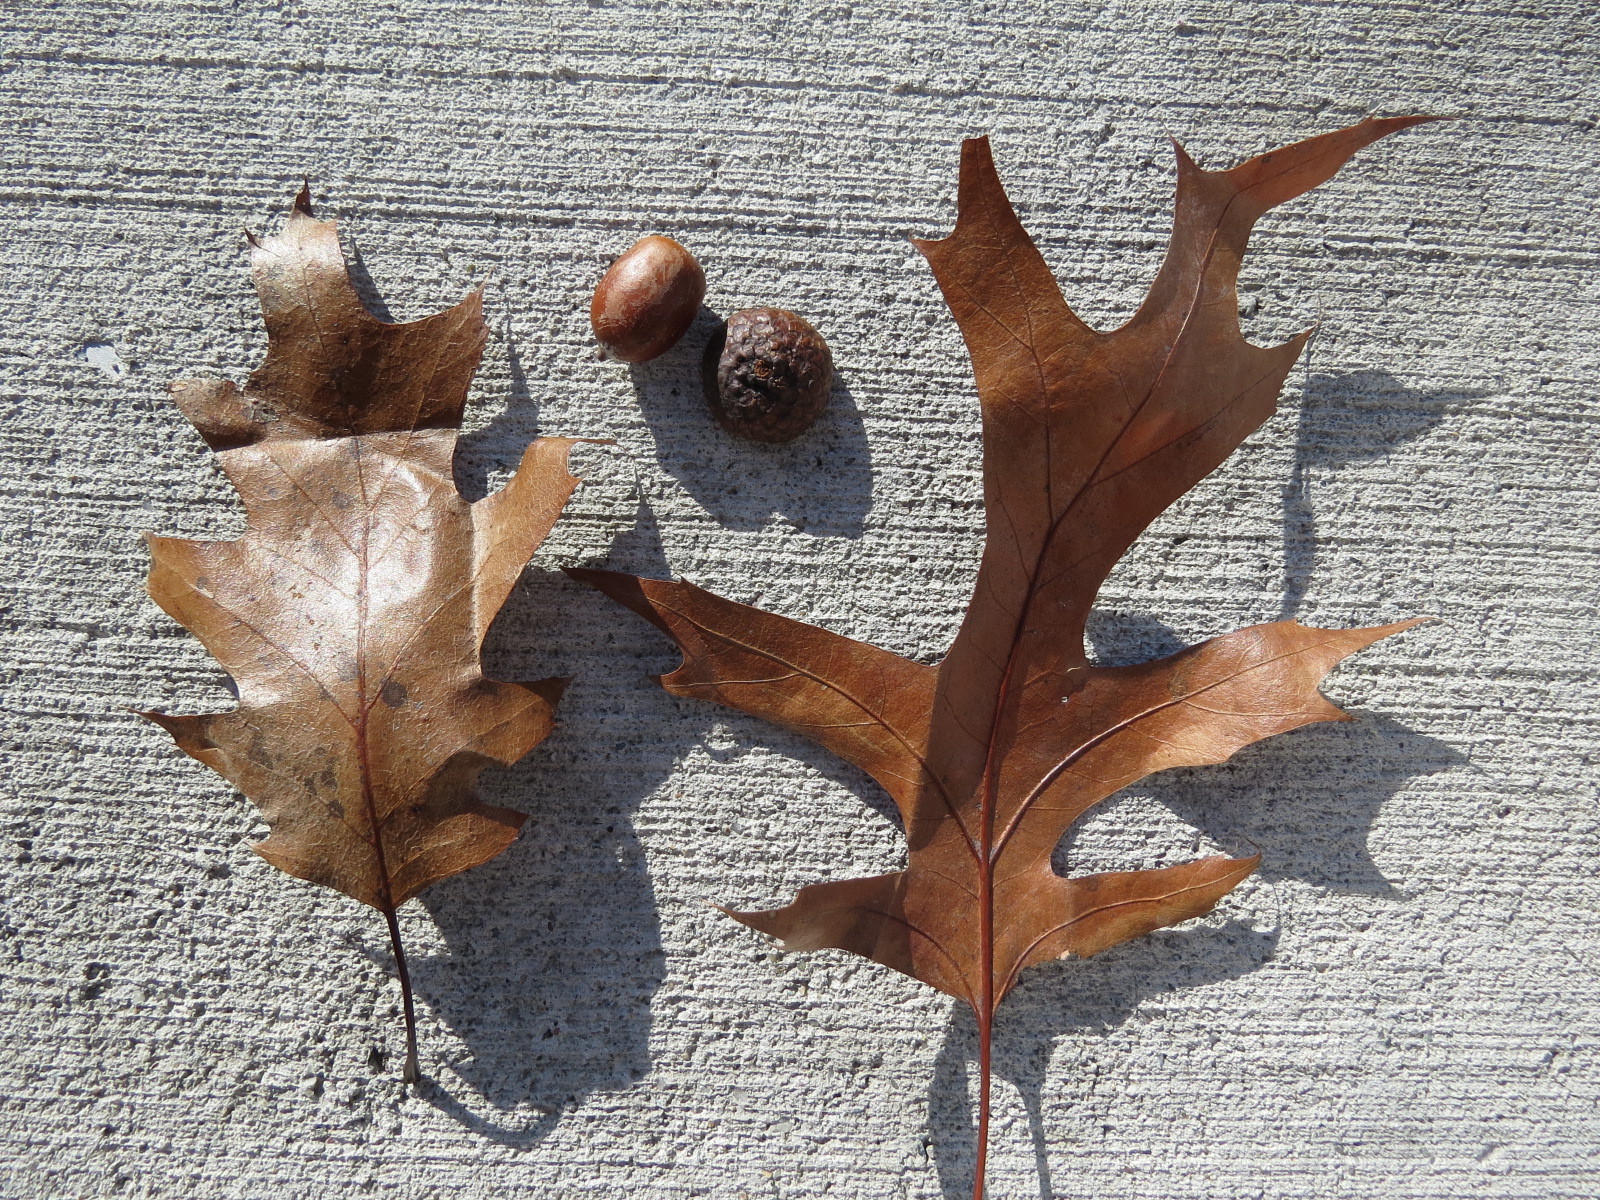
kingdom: Plantae
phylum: Tracheophyta
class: Magnoliopsida
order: Fagales
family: Fagaceae
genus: Quercus
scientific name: Quercus rubra
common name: Red oak
